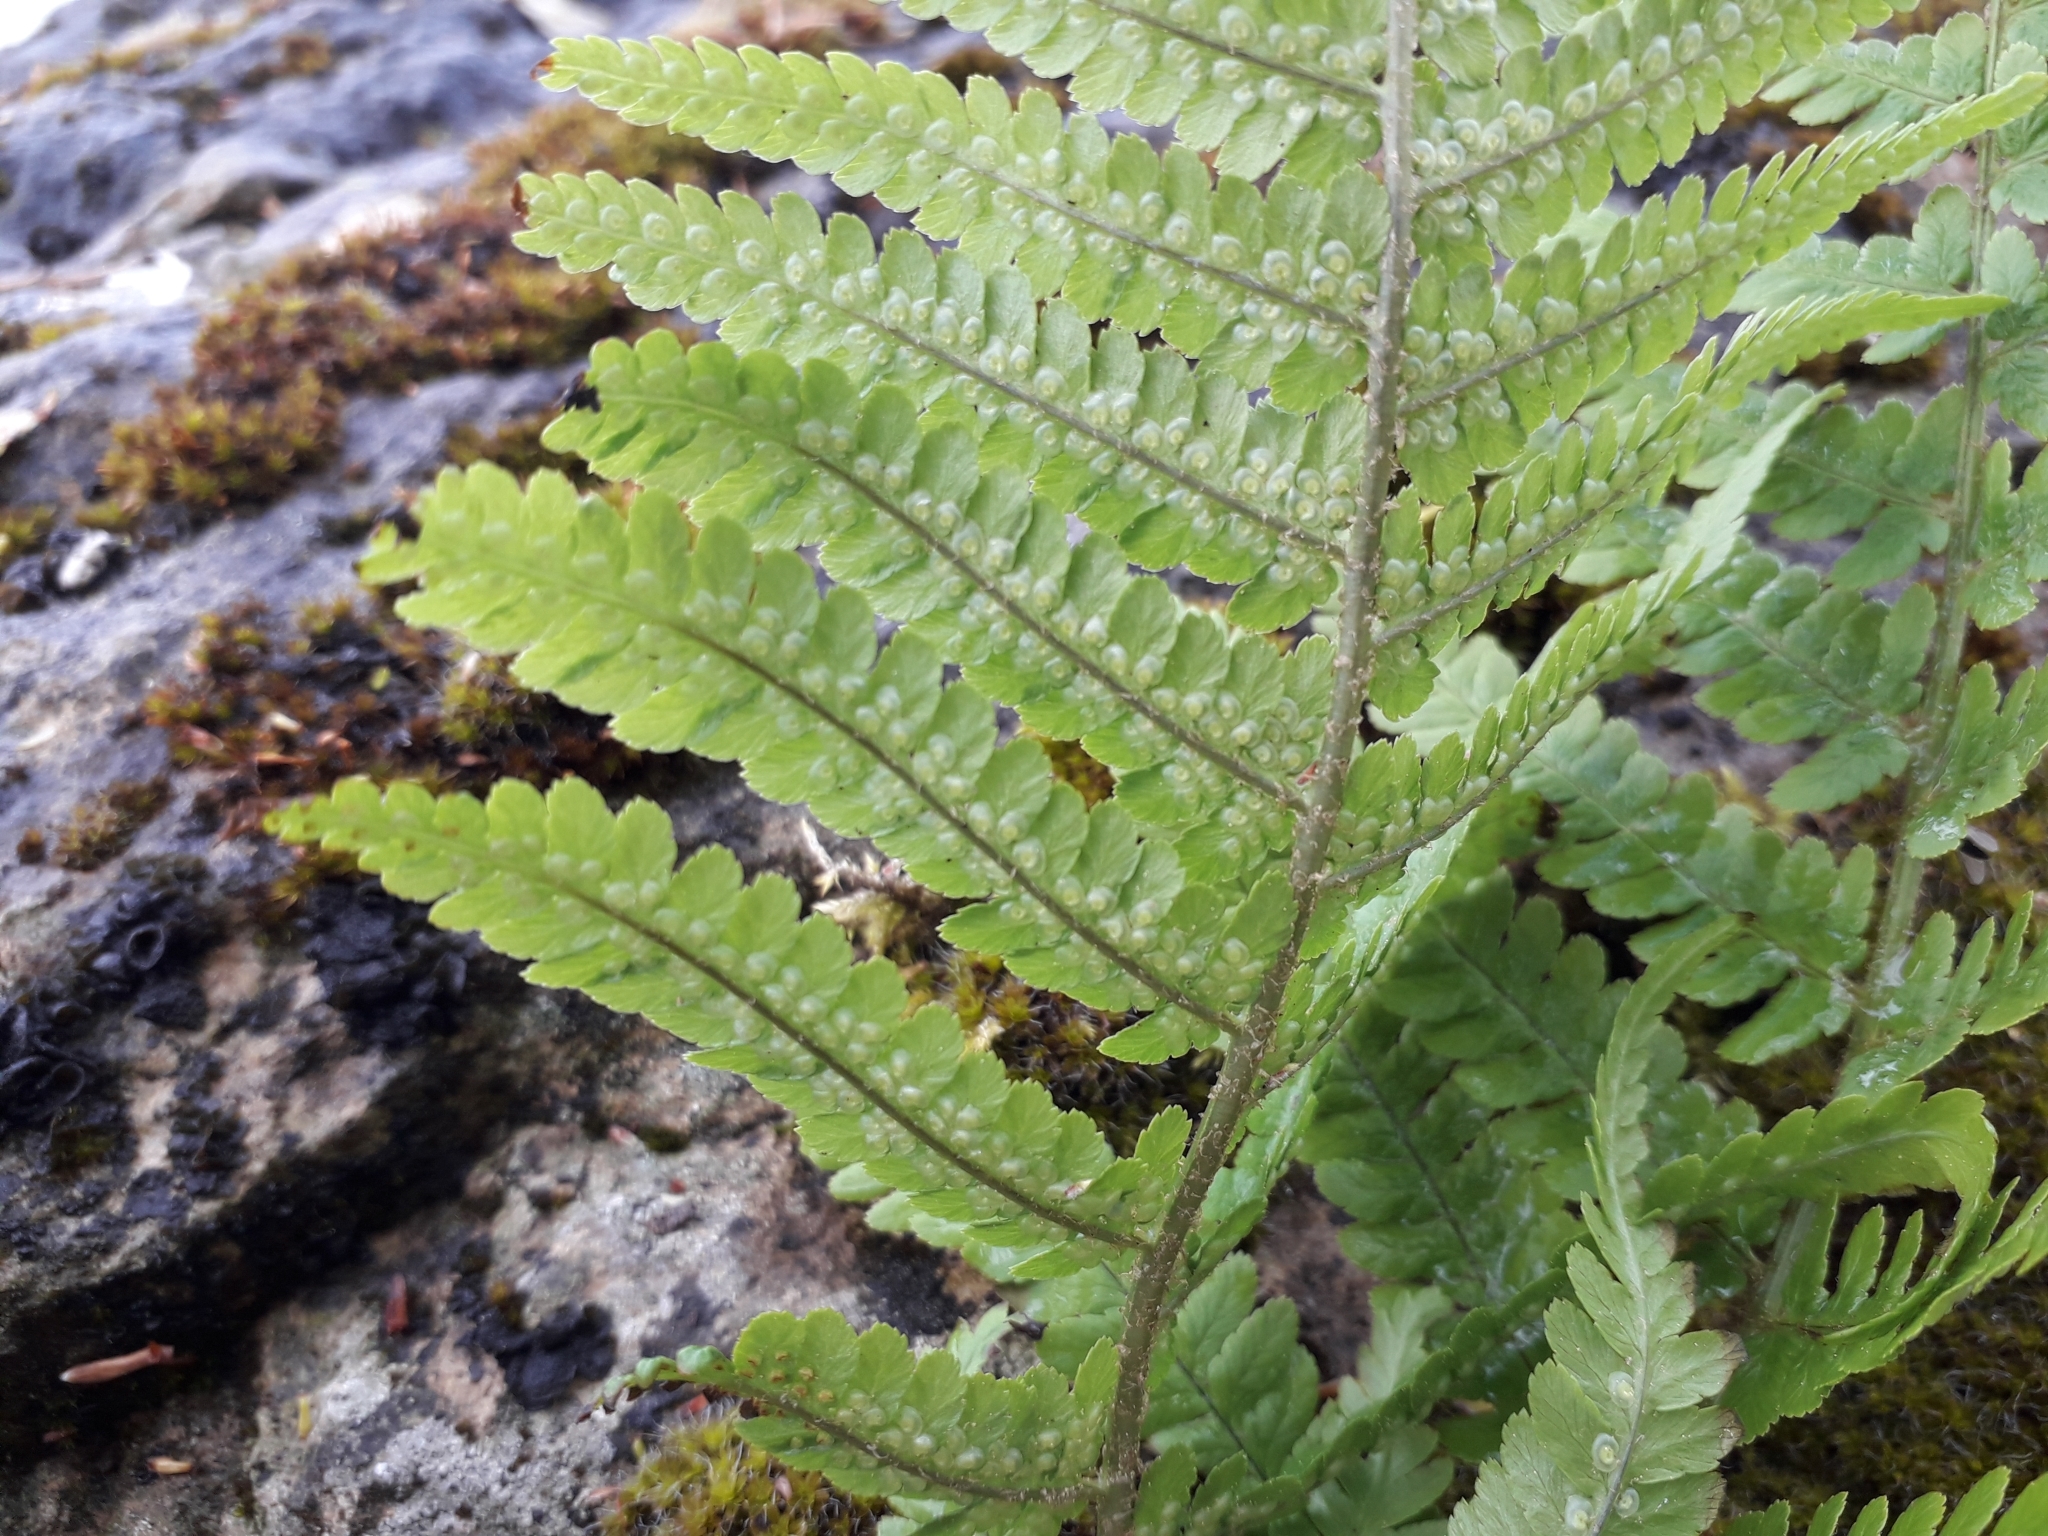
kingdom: Plantae
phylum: Tracheophyta
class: Polypodiopsida
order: Polypodiales
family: Dryopteridaceae
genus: Dryopteris
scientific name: Dryopteris filix-mas
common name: Male fern
